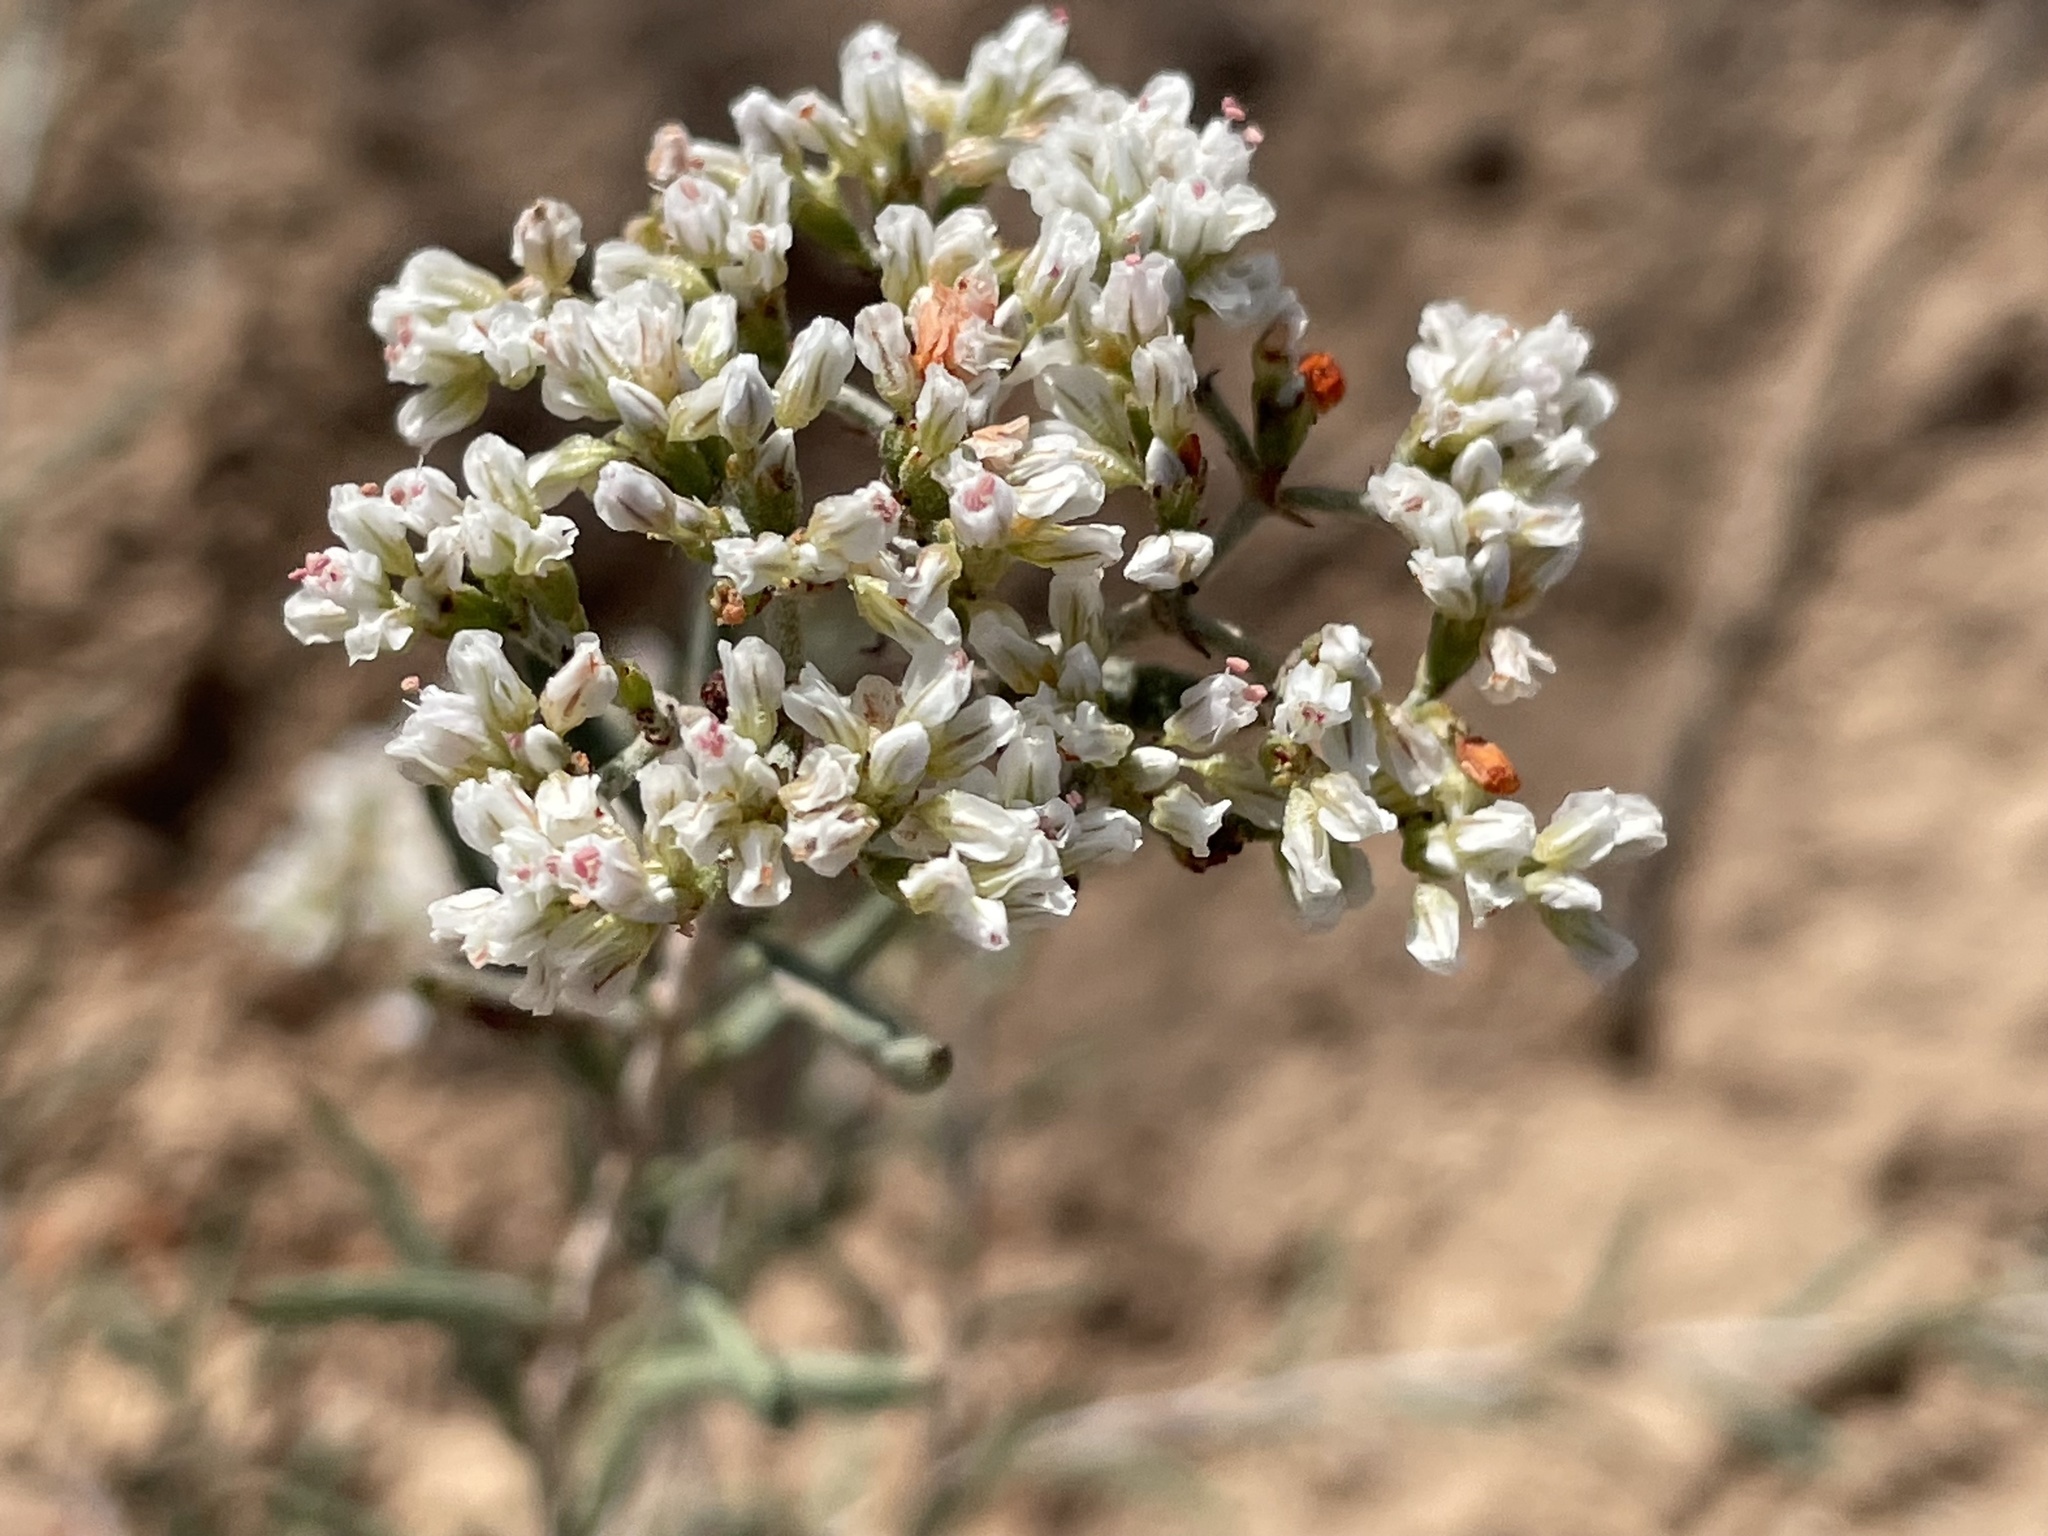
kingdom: Plantae
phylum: Tracheophyta
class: Magnoliopsida
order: Caryophyllales
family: Polygonaceae
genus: Eriogonum
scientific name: Eriogonum microtheca
